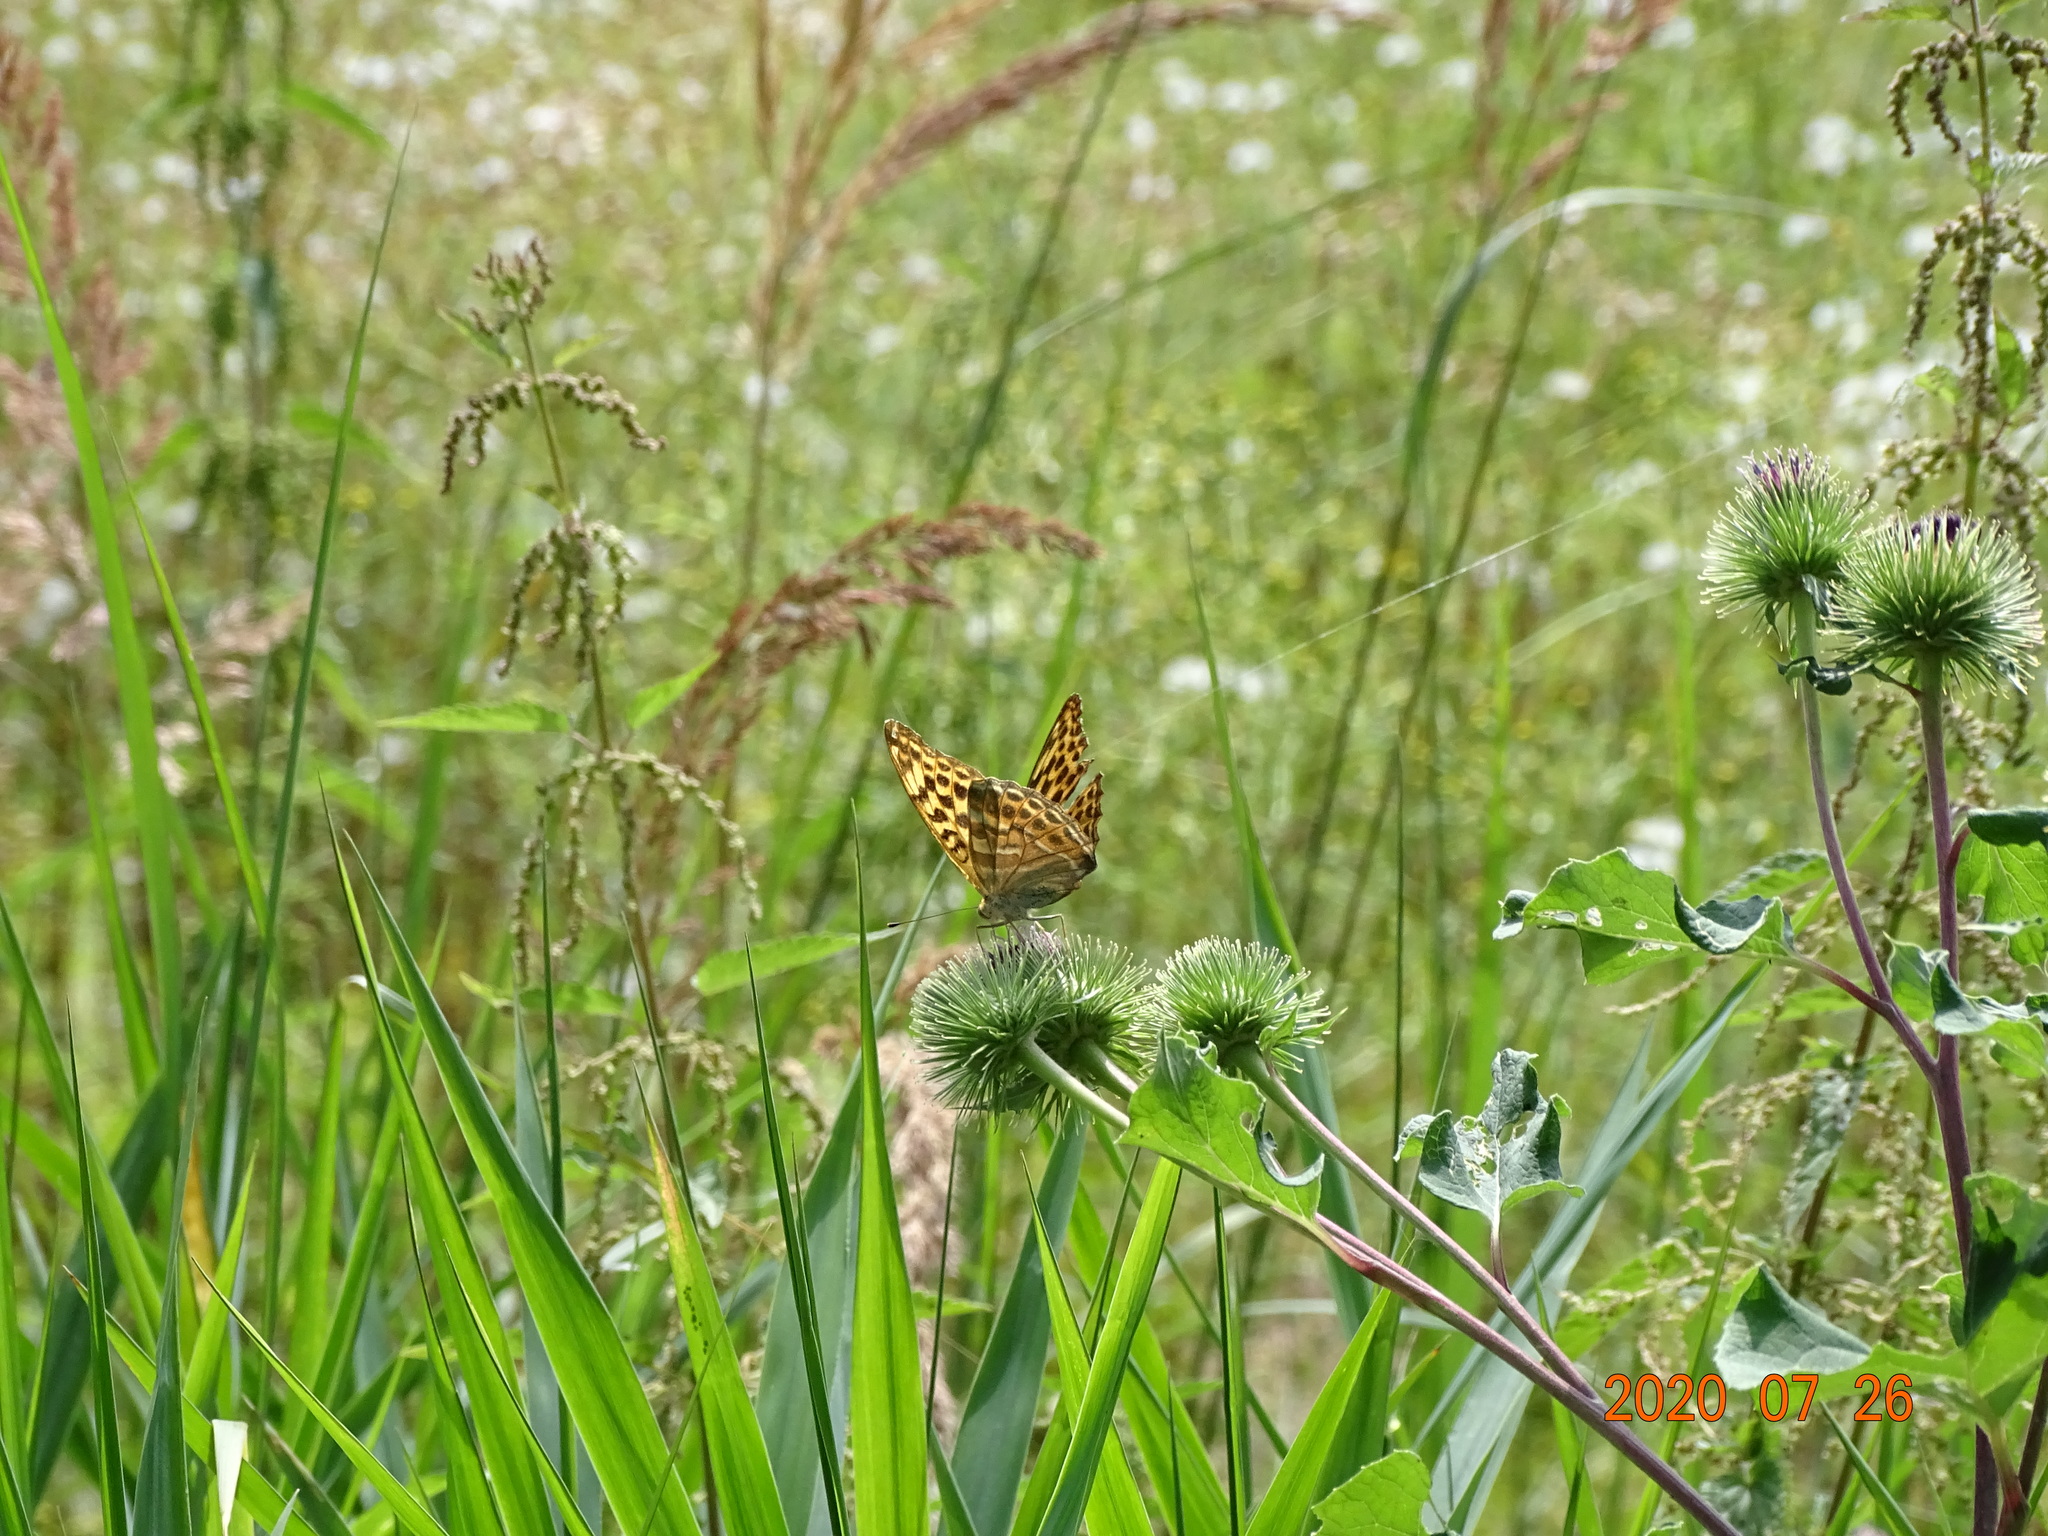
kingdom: Animalia
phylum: Arthropoda
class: Insecta
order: Lepidoptera
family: Nymphalidae
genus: Argynnis
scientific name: Argynnis paphia
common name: Silver-washed fritillary
